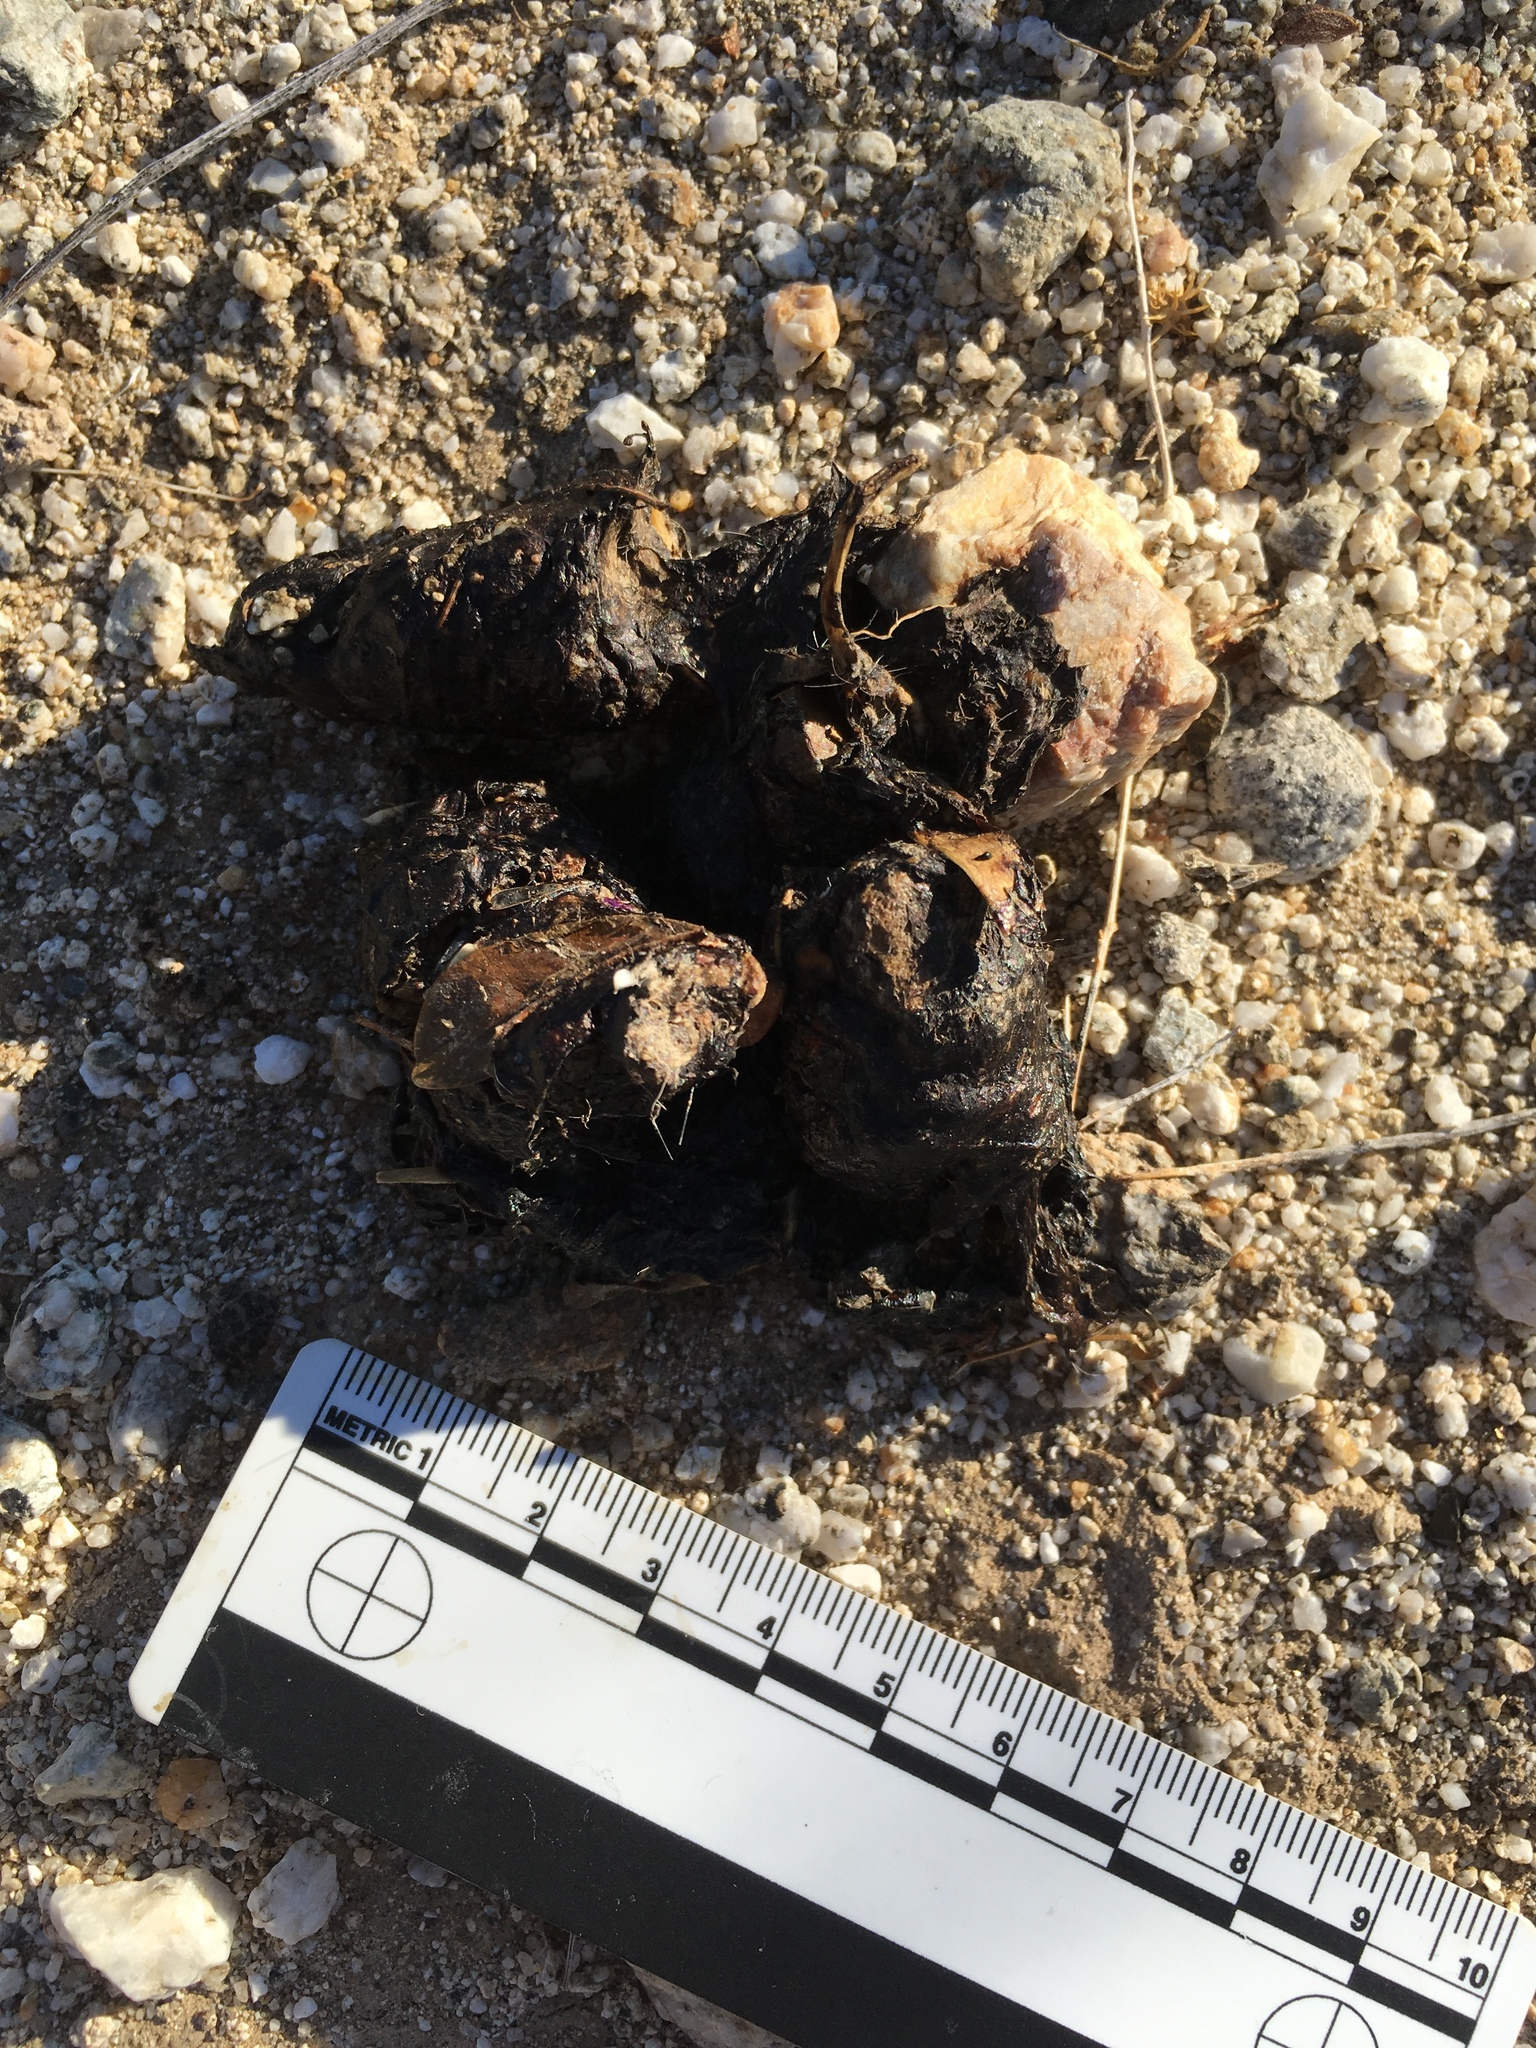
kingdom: Animalia
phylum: Chordata
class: Mammalia
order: Carnivora
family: Canidae
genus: Canis
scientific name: Canis latrans
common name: Coyote
